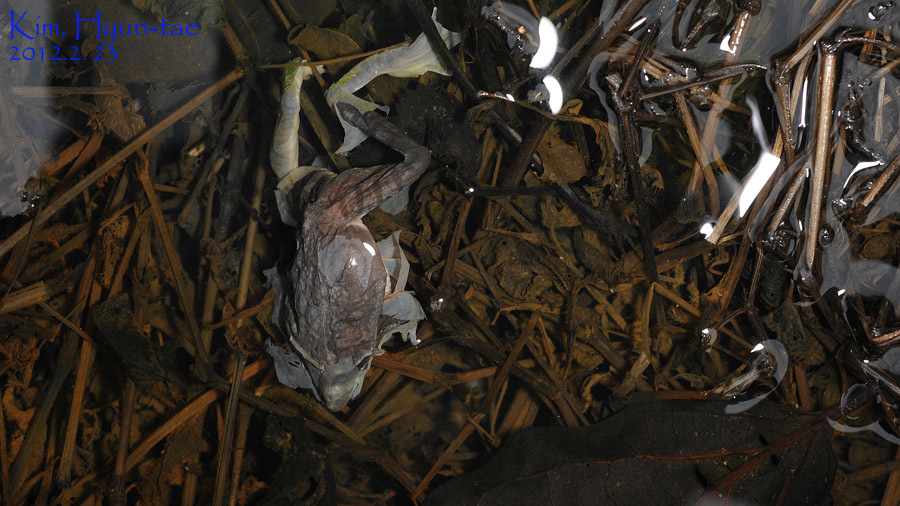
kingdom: Animalia
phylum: Chordata
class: Amphibia
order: Anura
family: Ranidae
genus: Rana
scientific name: Rana uenoi
